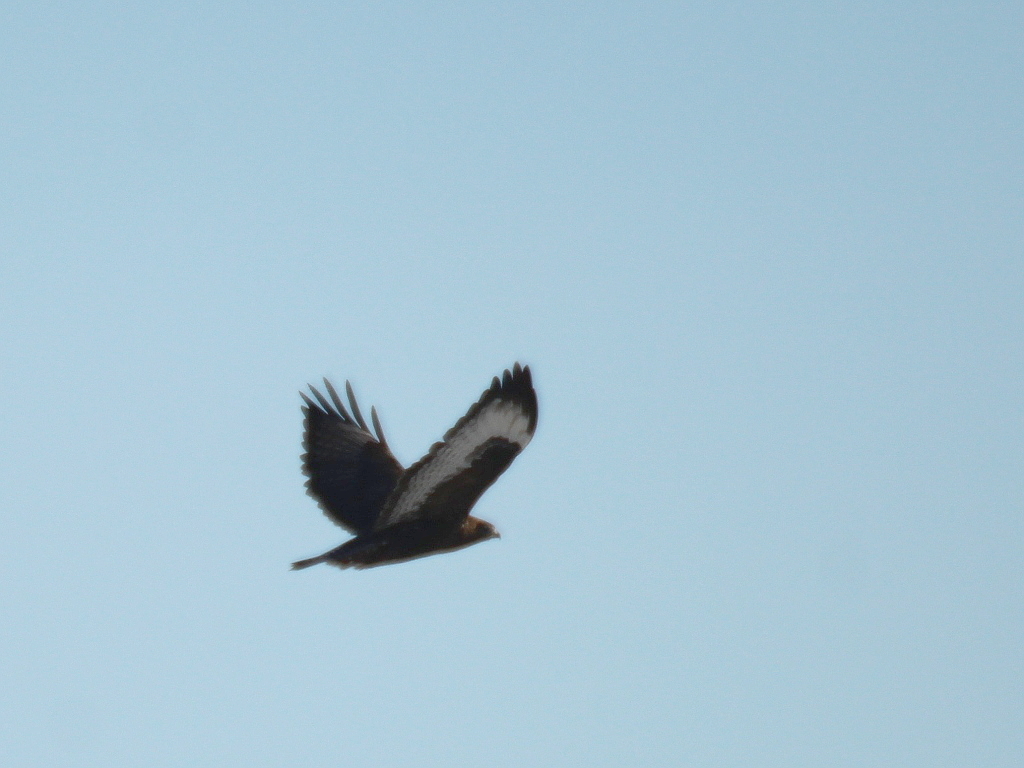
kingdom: Animalia
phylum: Chordata
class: Aves
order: Accipitriformes
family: Accipitridae
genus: Buteo
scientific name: Buteo hemilasius
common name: Upland buzzard
